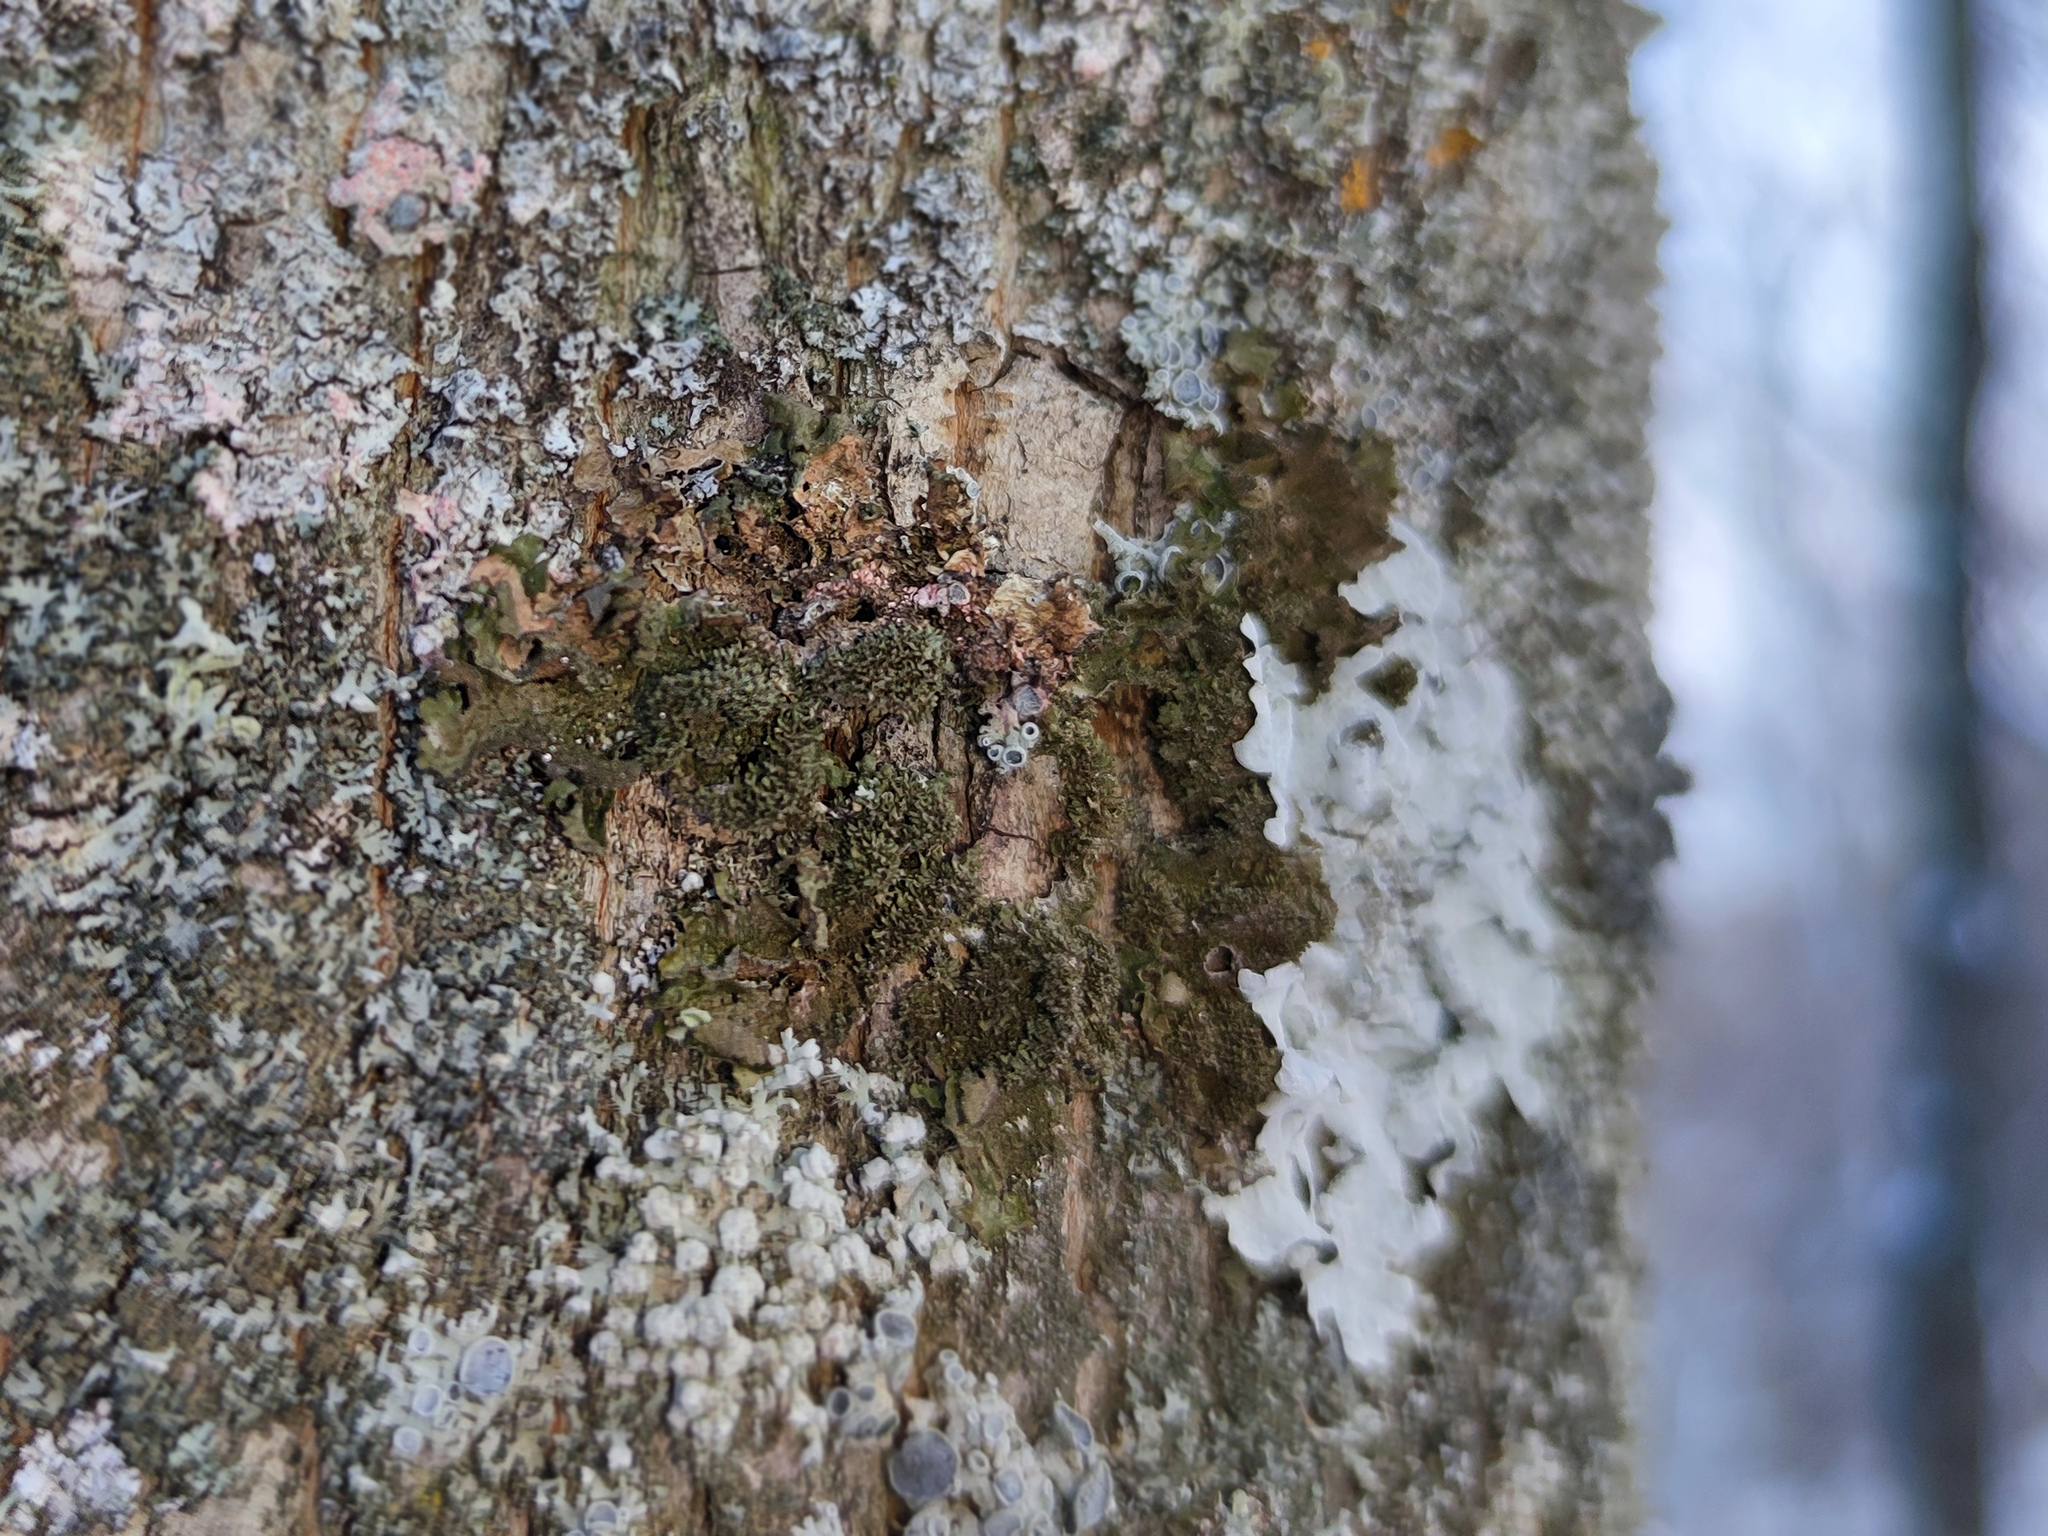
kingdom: Fungi
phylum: Ascomycota
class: Lecanoromycetes
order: Lecanorales
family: Parmeliaceae
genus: Melanohalea
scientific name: Melanohalea exasperatula
